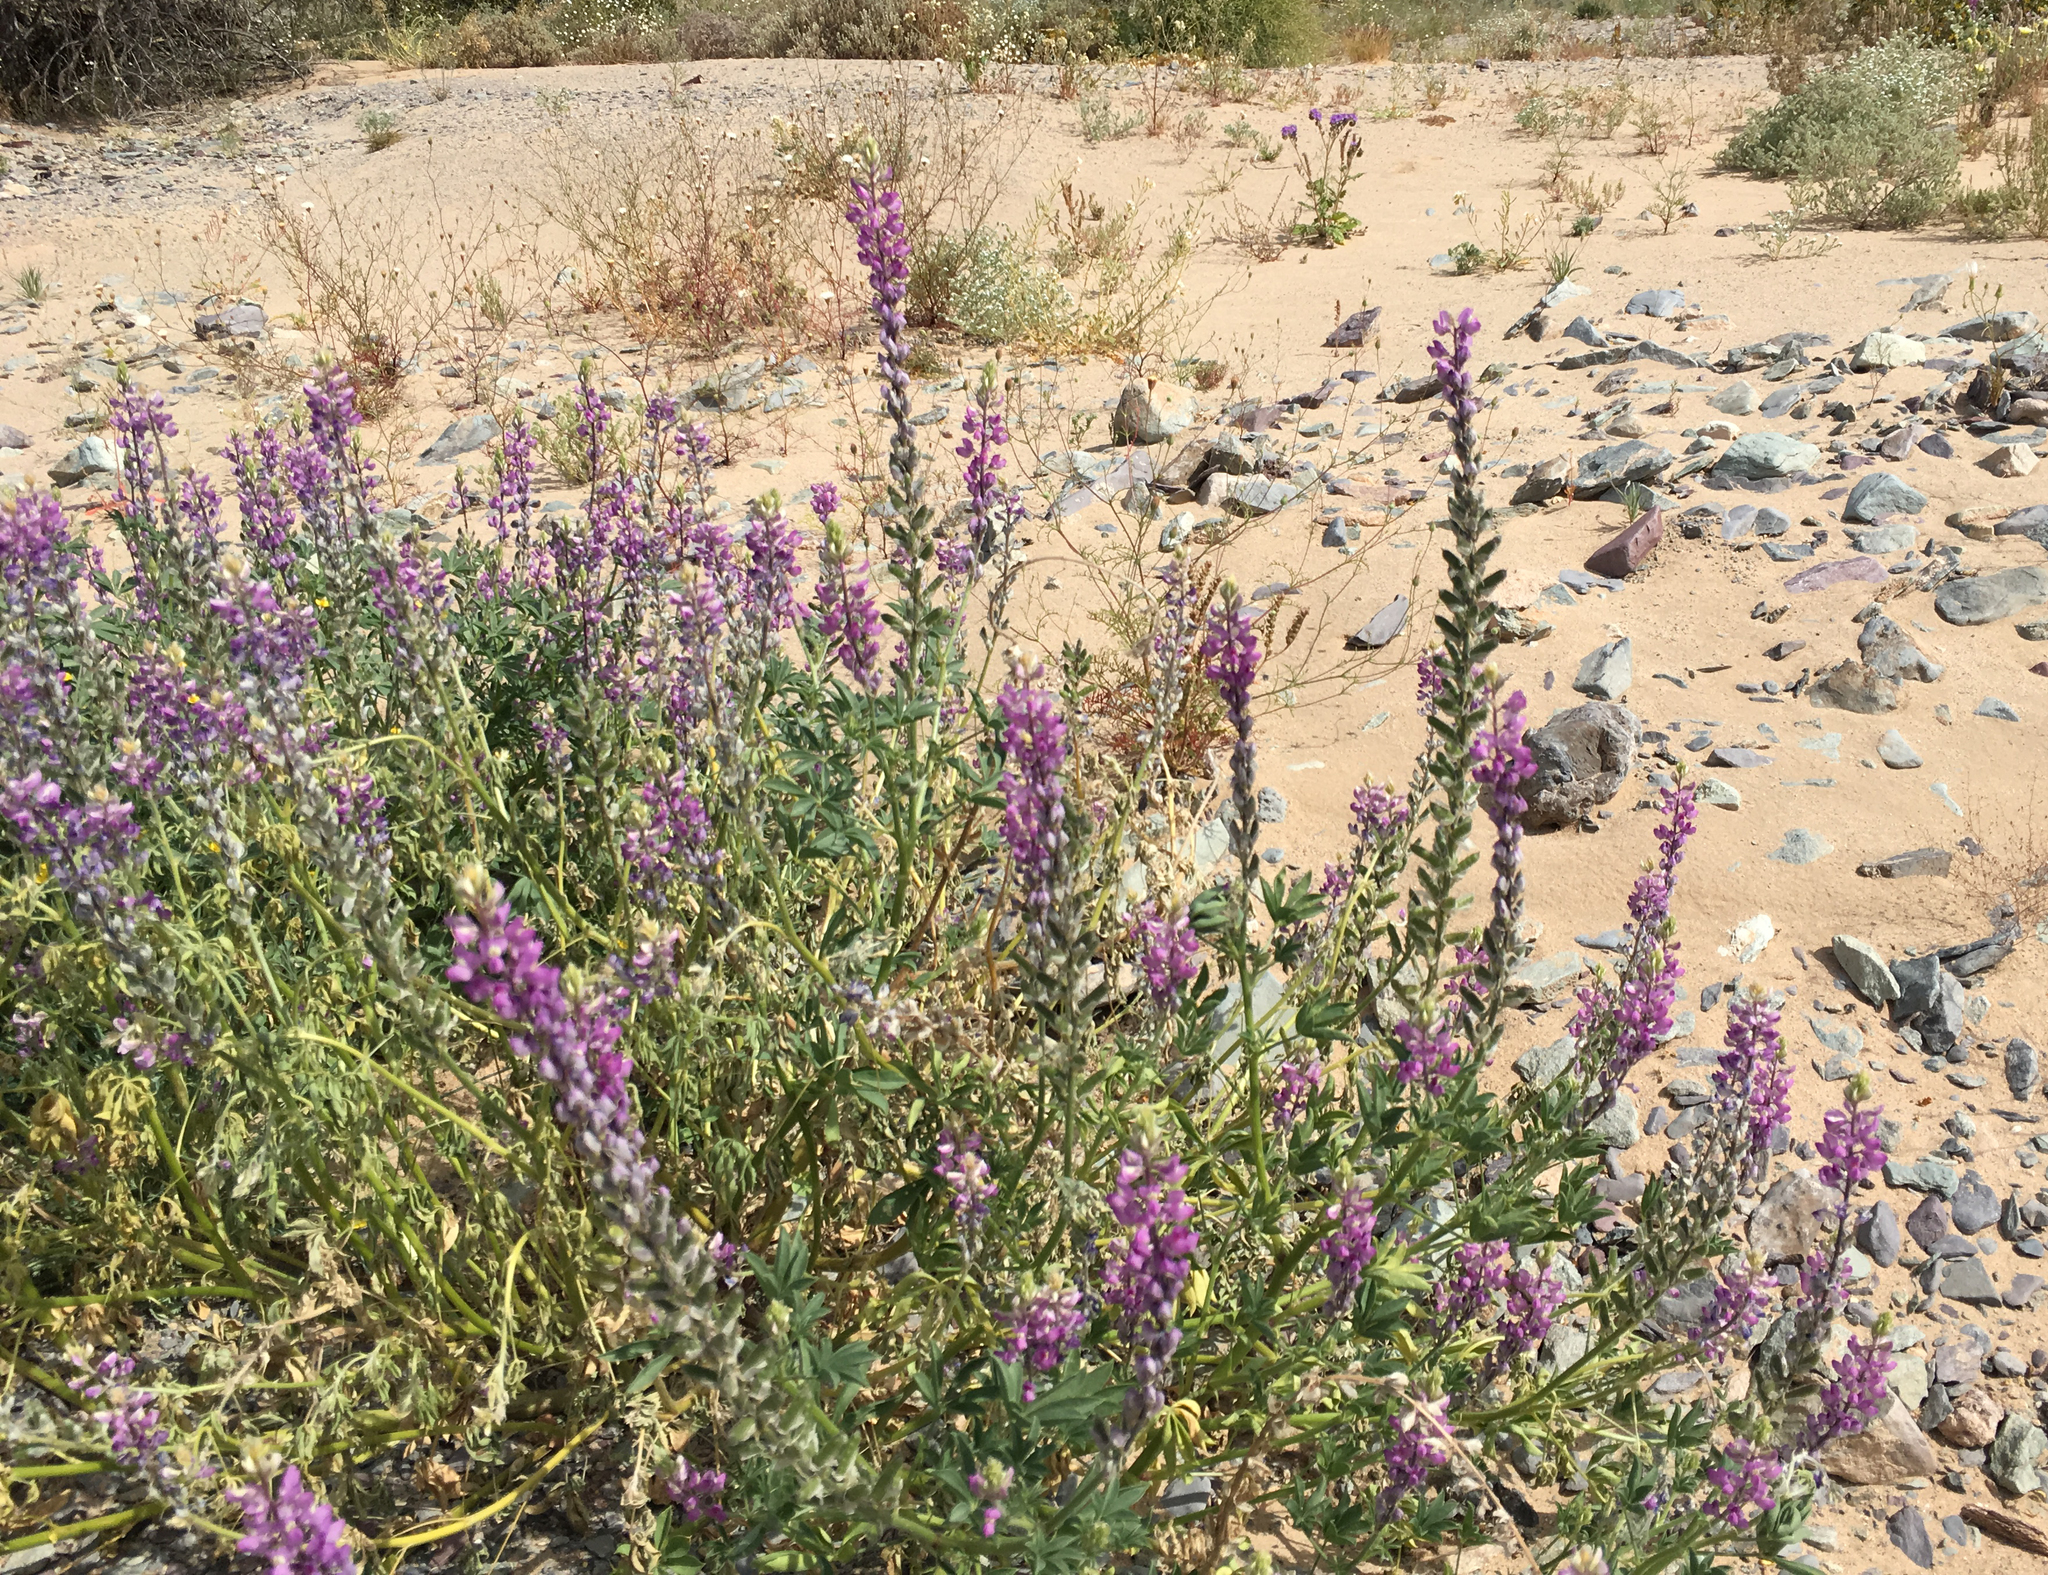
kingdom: Plantae
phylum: Tracheophyta
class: Magnoliopsida
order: Fabales
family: Fabaceae
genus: Lupinus
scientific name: Lupinus arizonicus
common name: Arizona lupine
